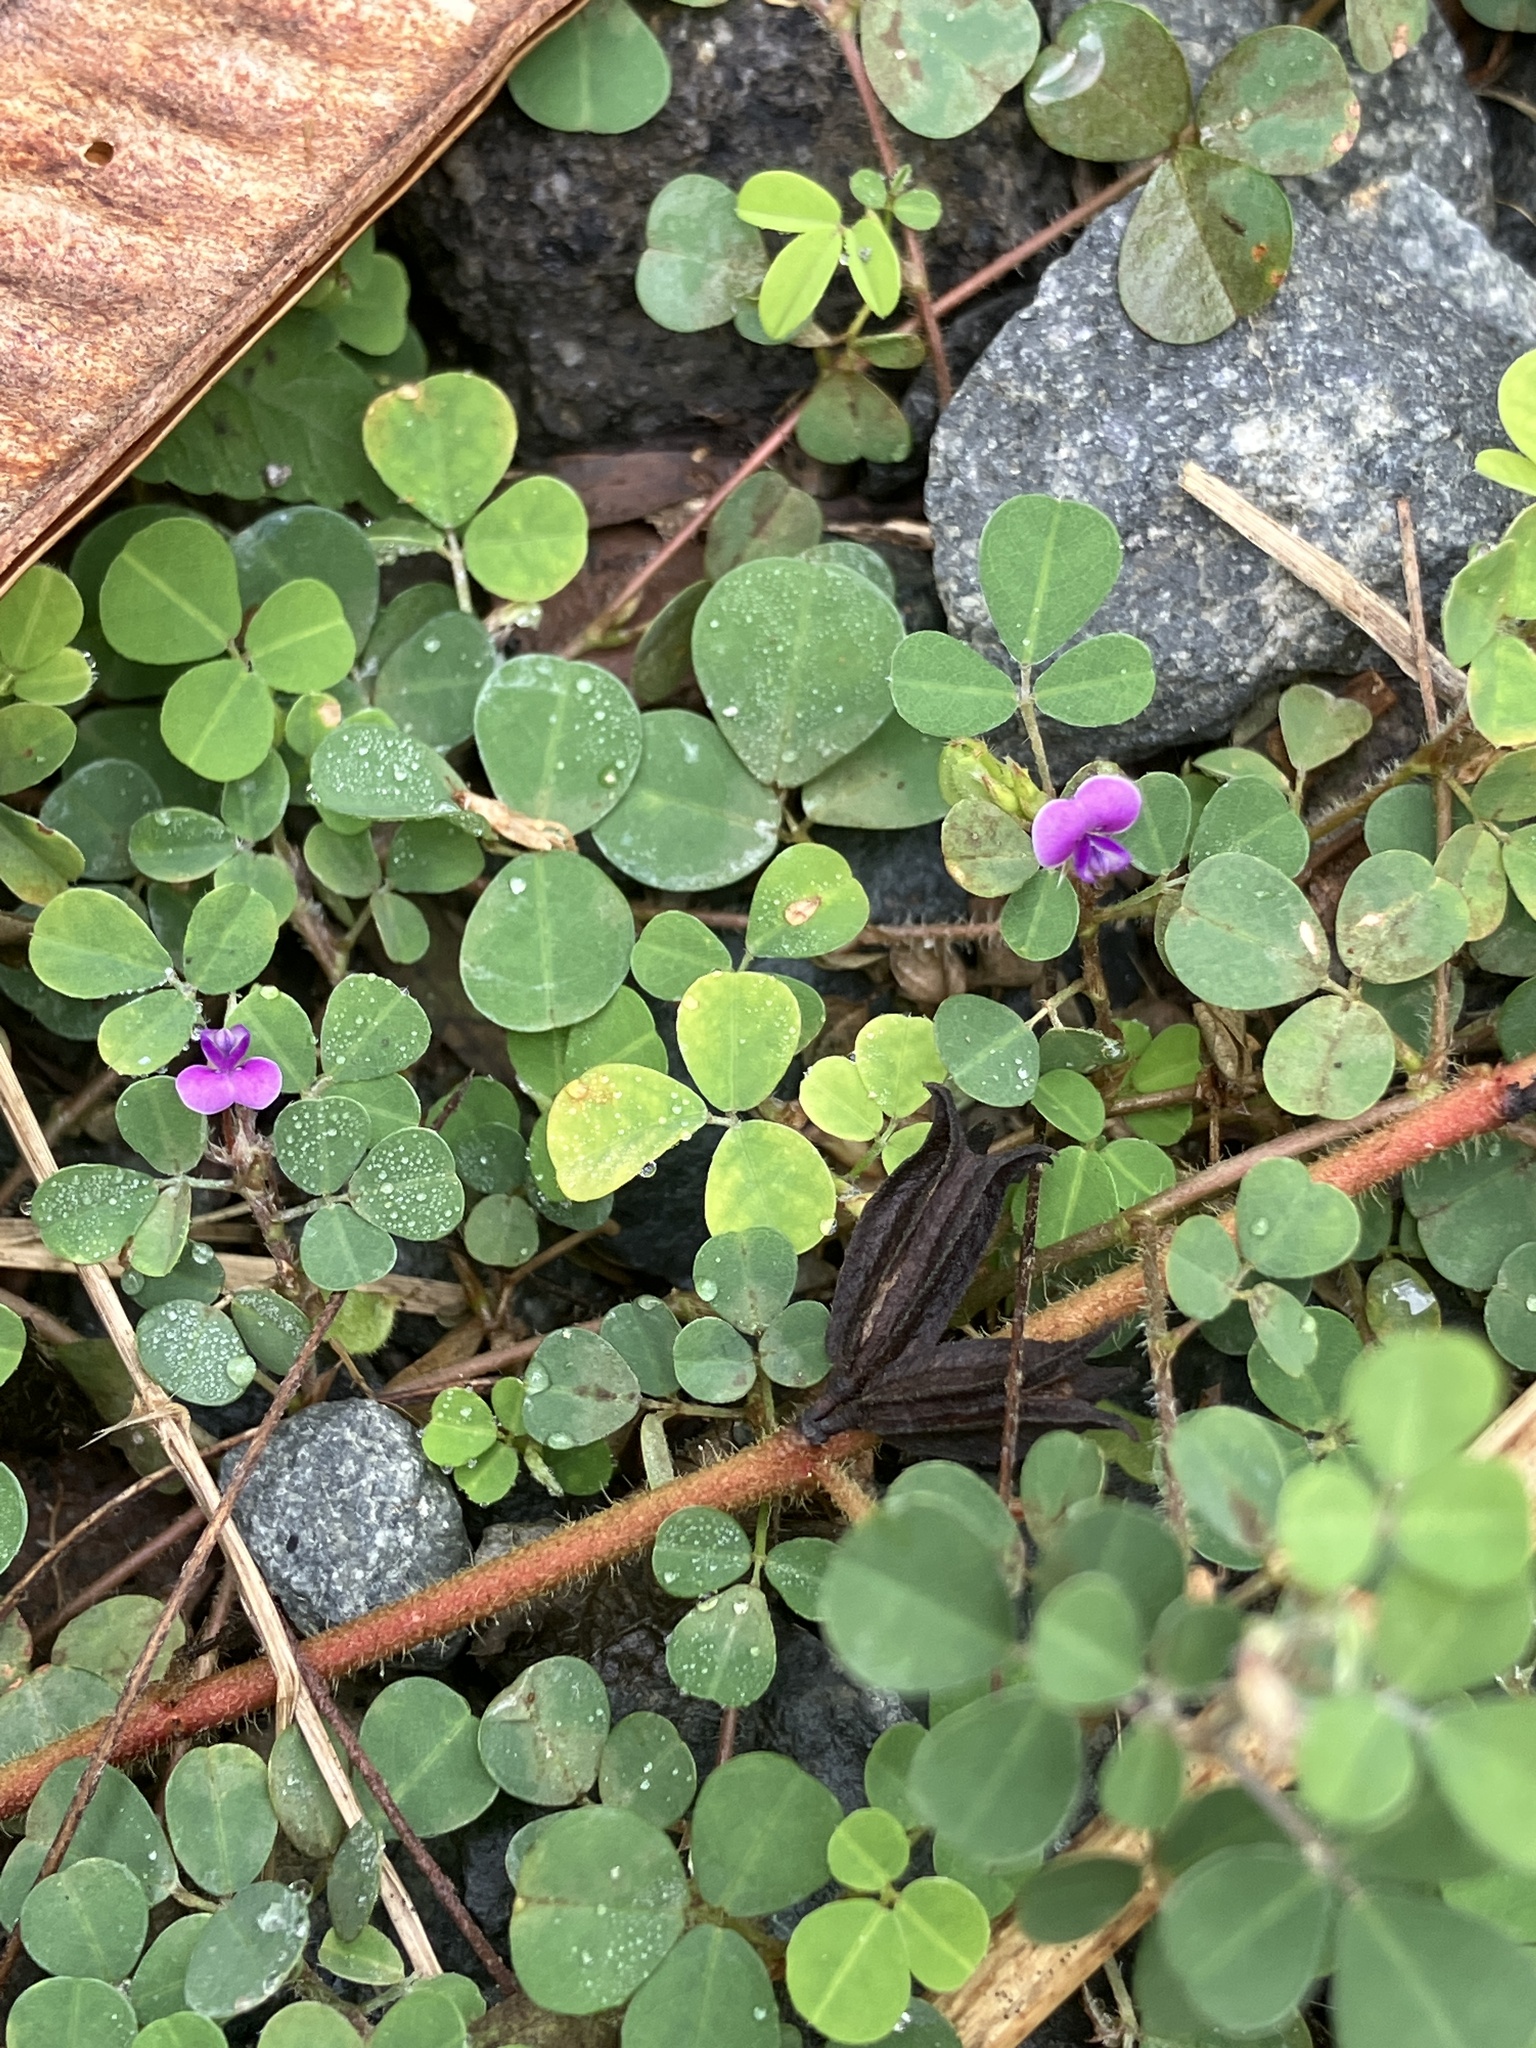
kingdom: Plantae
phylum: Tracheophyta
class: Magnoliopsida
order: Fabales
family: Fabaceae
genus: Grona
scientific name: Grona triflora
